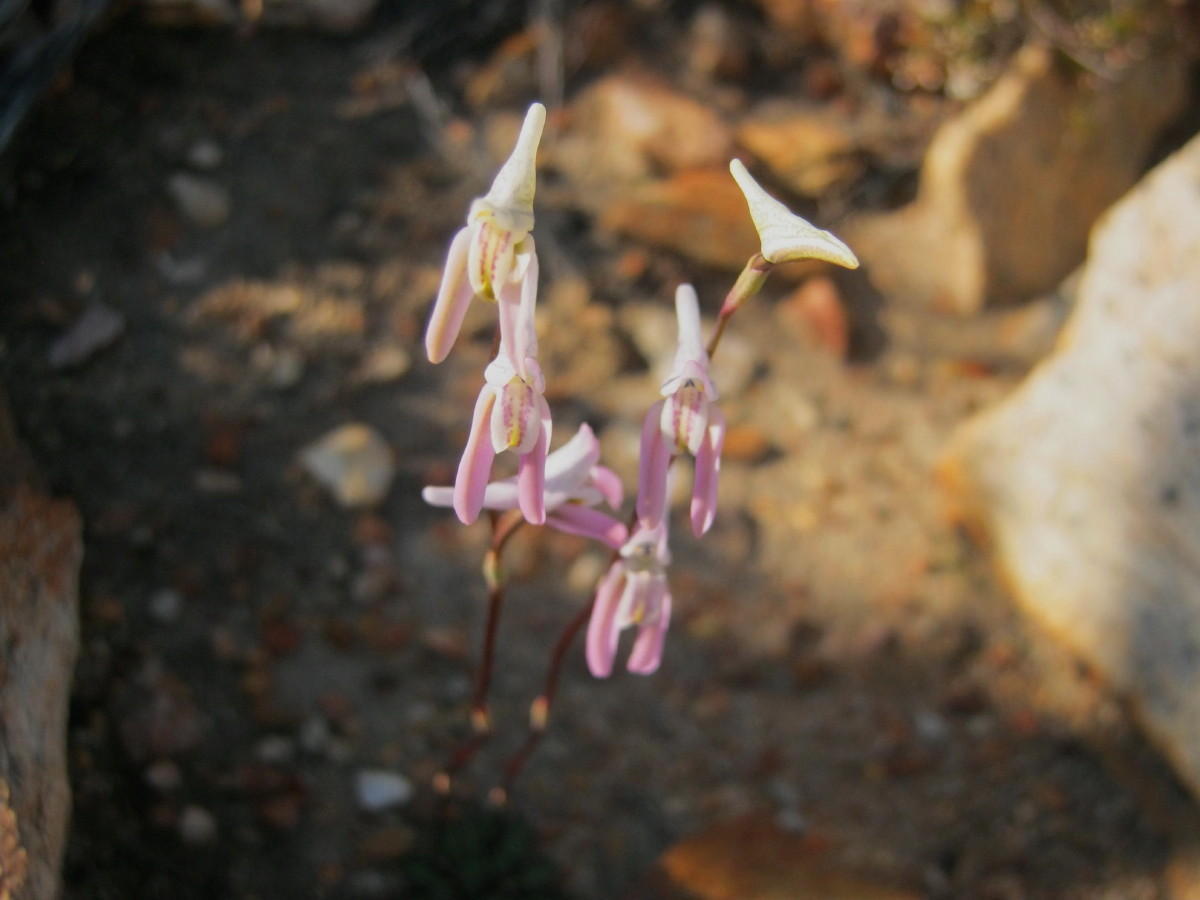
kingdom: Plantae
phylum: Tracheophyta
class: Liliopsida
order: Asparagales
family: Orchidaceae
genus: Disa
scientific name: Disa bifida
